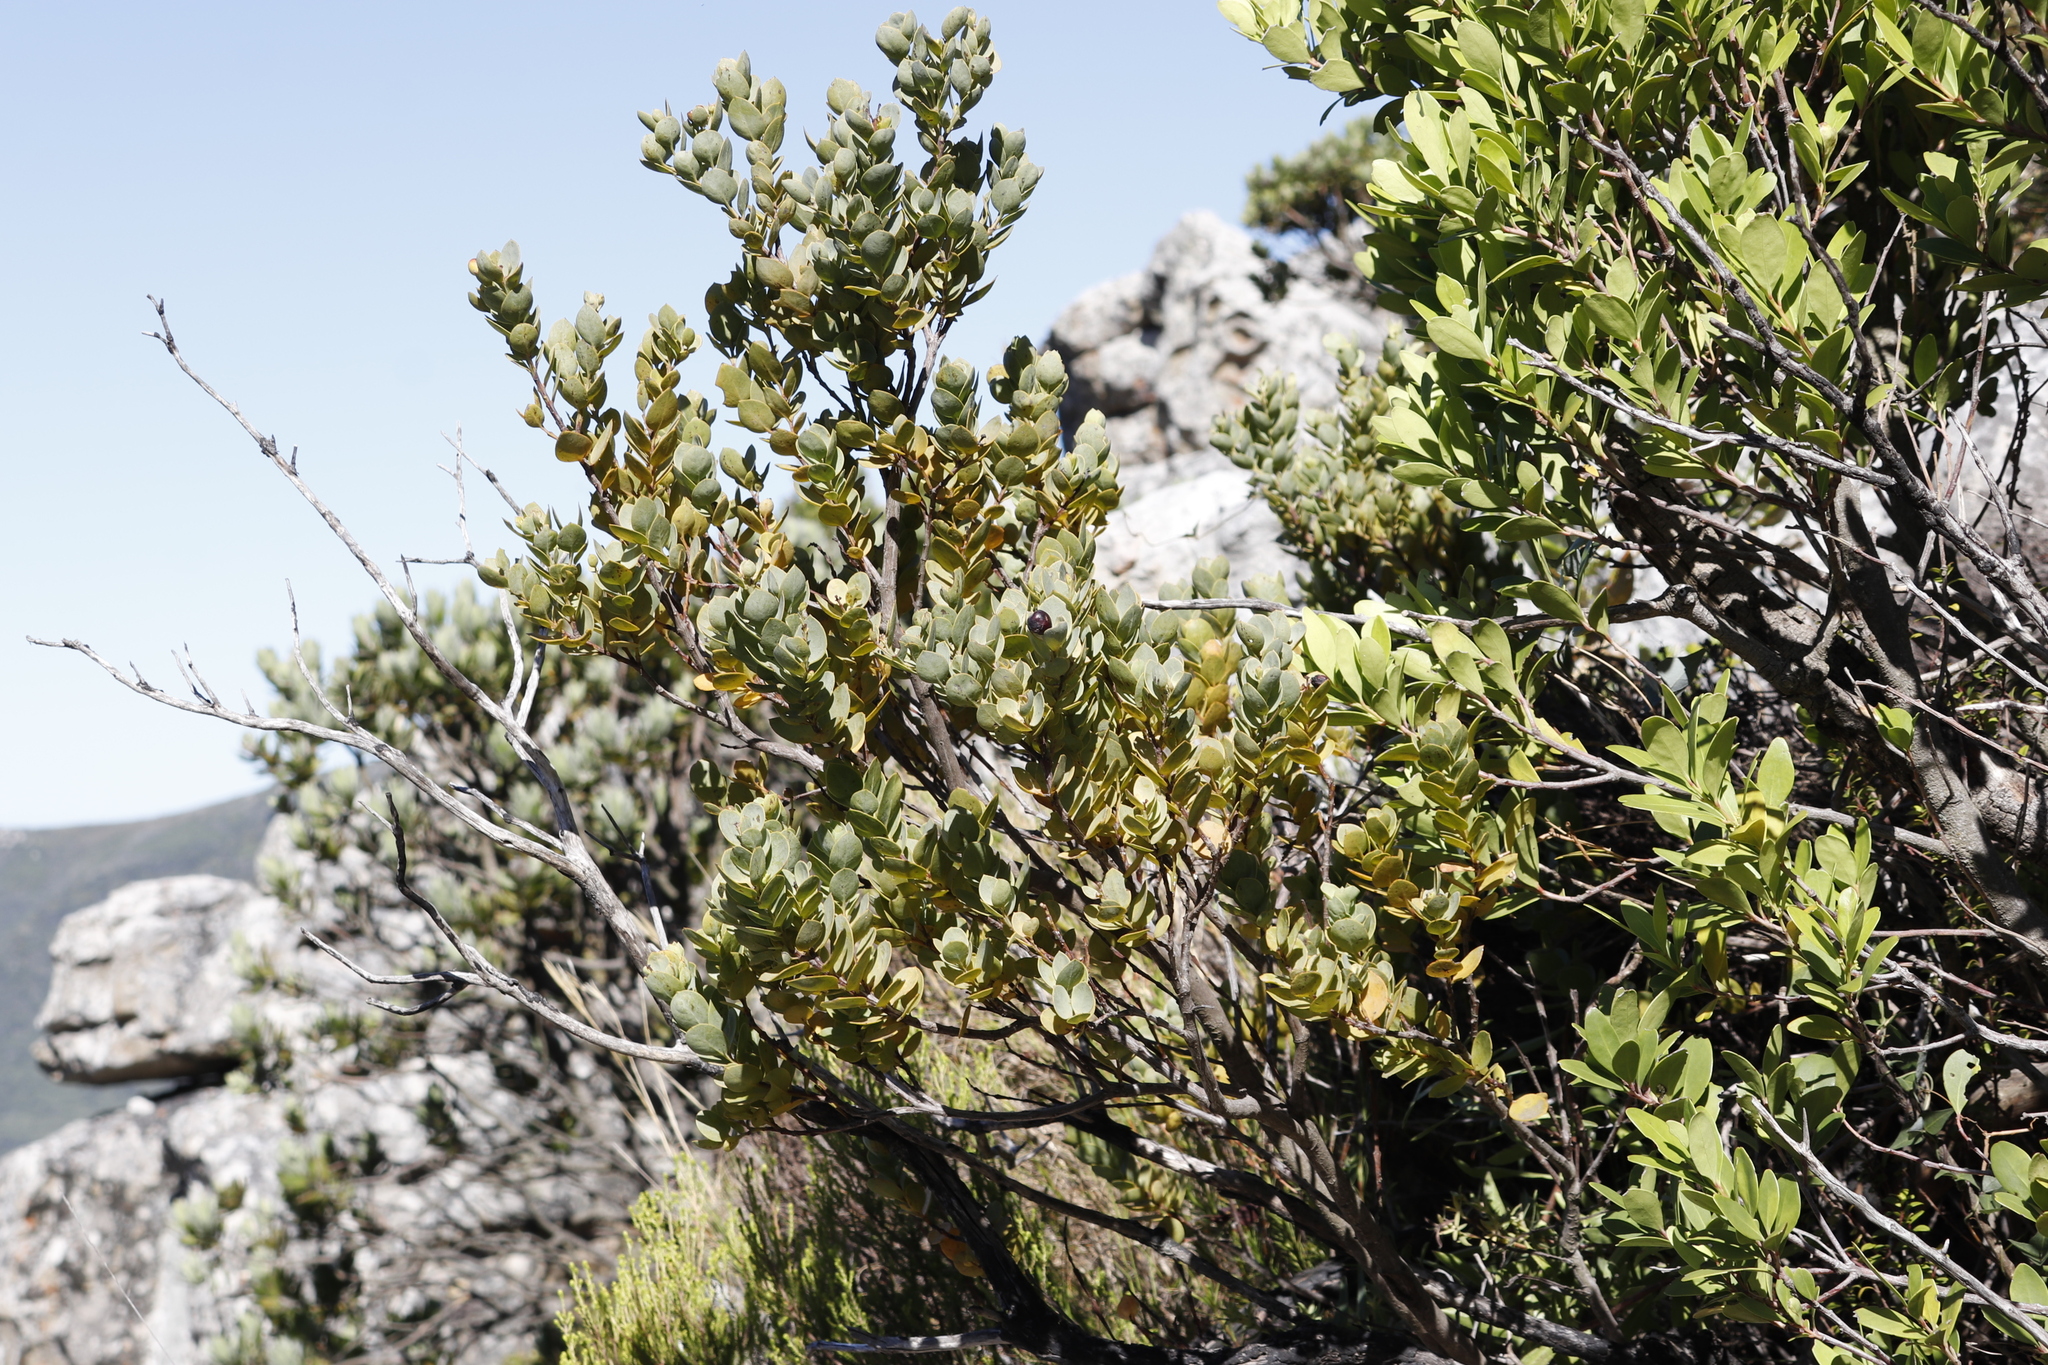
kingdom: Plantae
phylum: Tracheophyta
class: Magnoliopsida
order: Santalales
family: Santalaceae
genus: Osyris
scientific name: Osyris compressa
